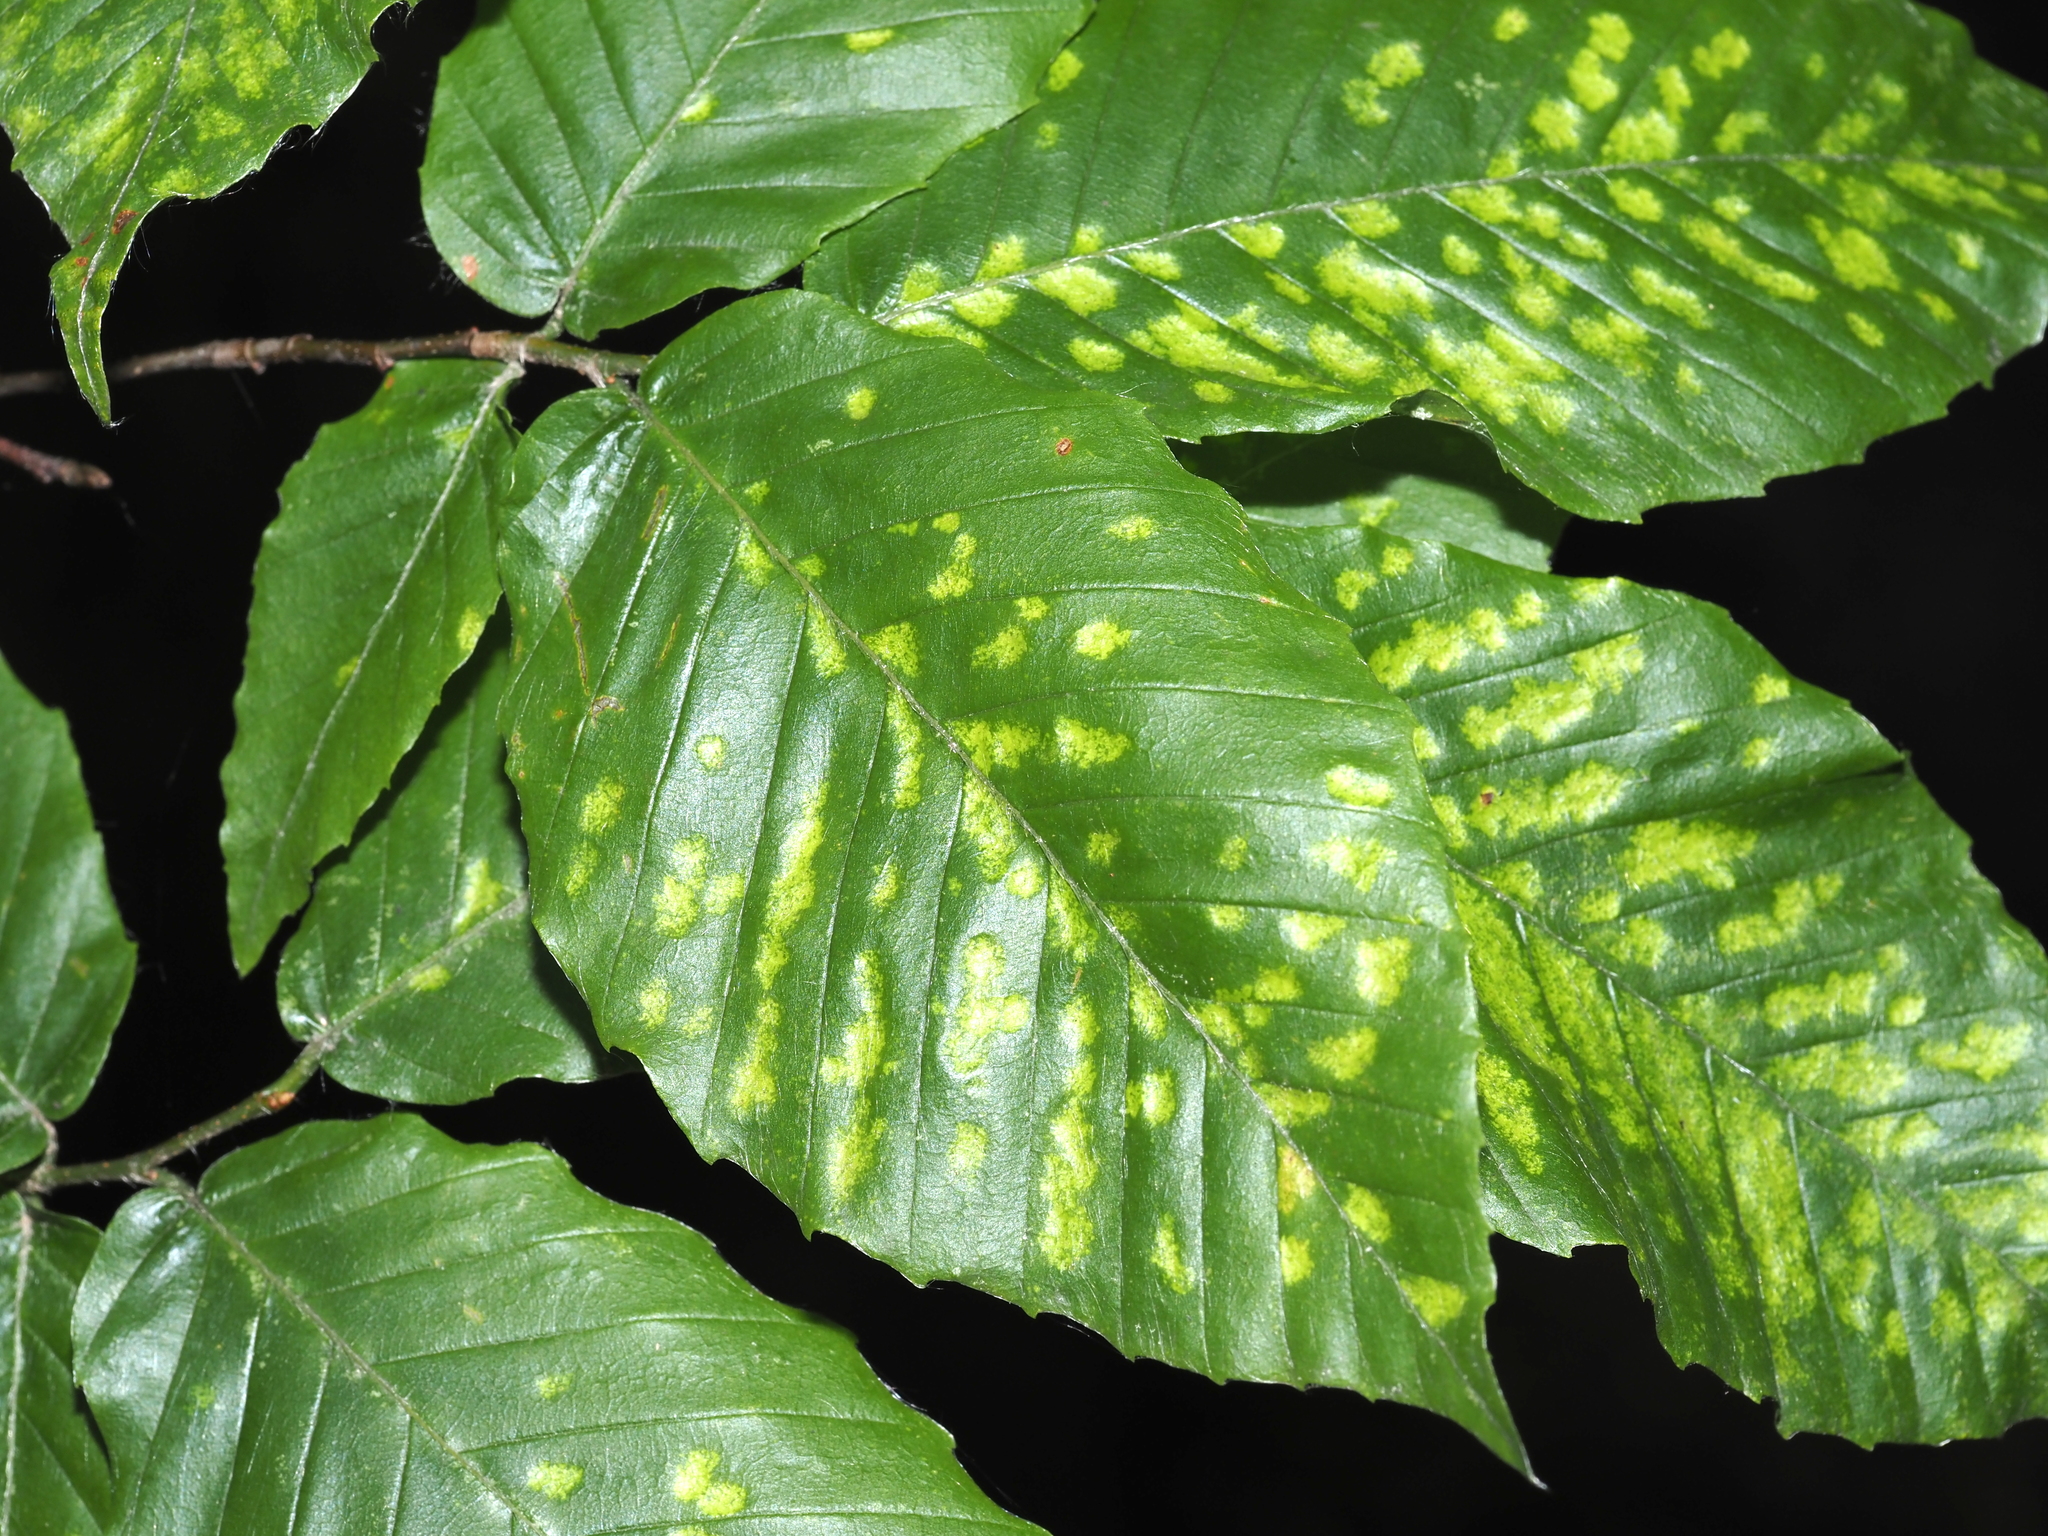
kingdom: Animalia
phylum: Arthropoda
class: Arachnida
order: Trombidiformes
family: Eriophyidae
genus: Acalitus
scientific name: Acalitus
